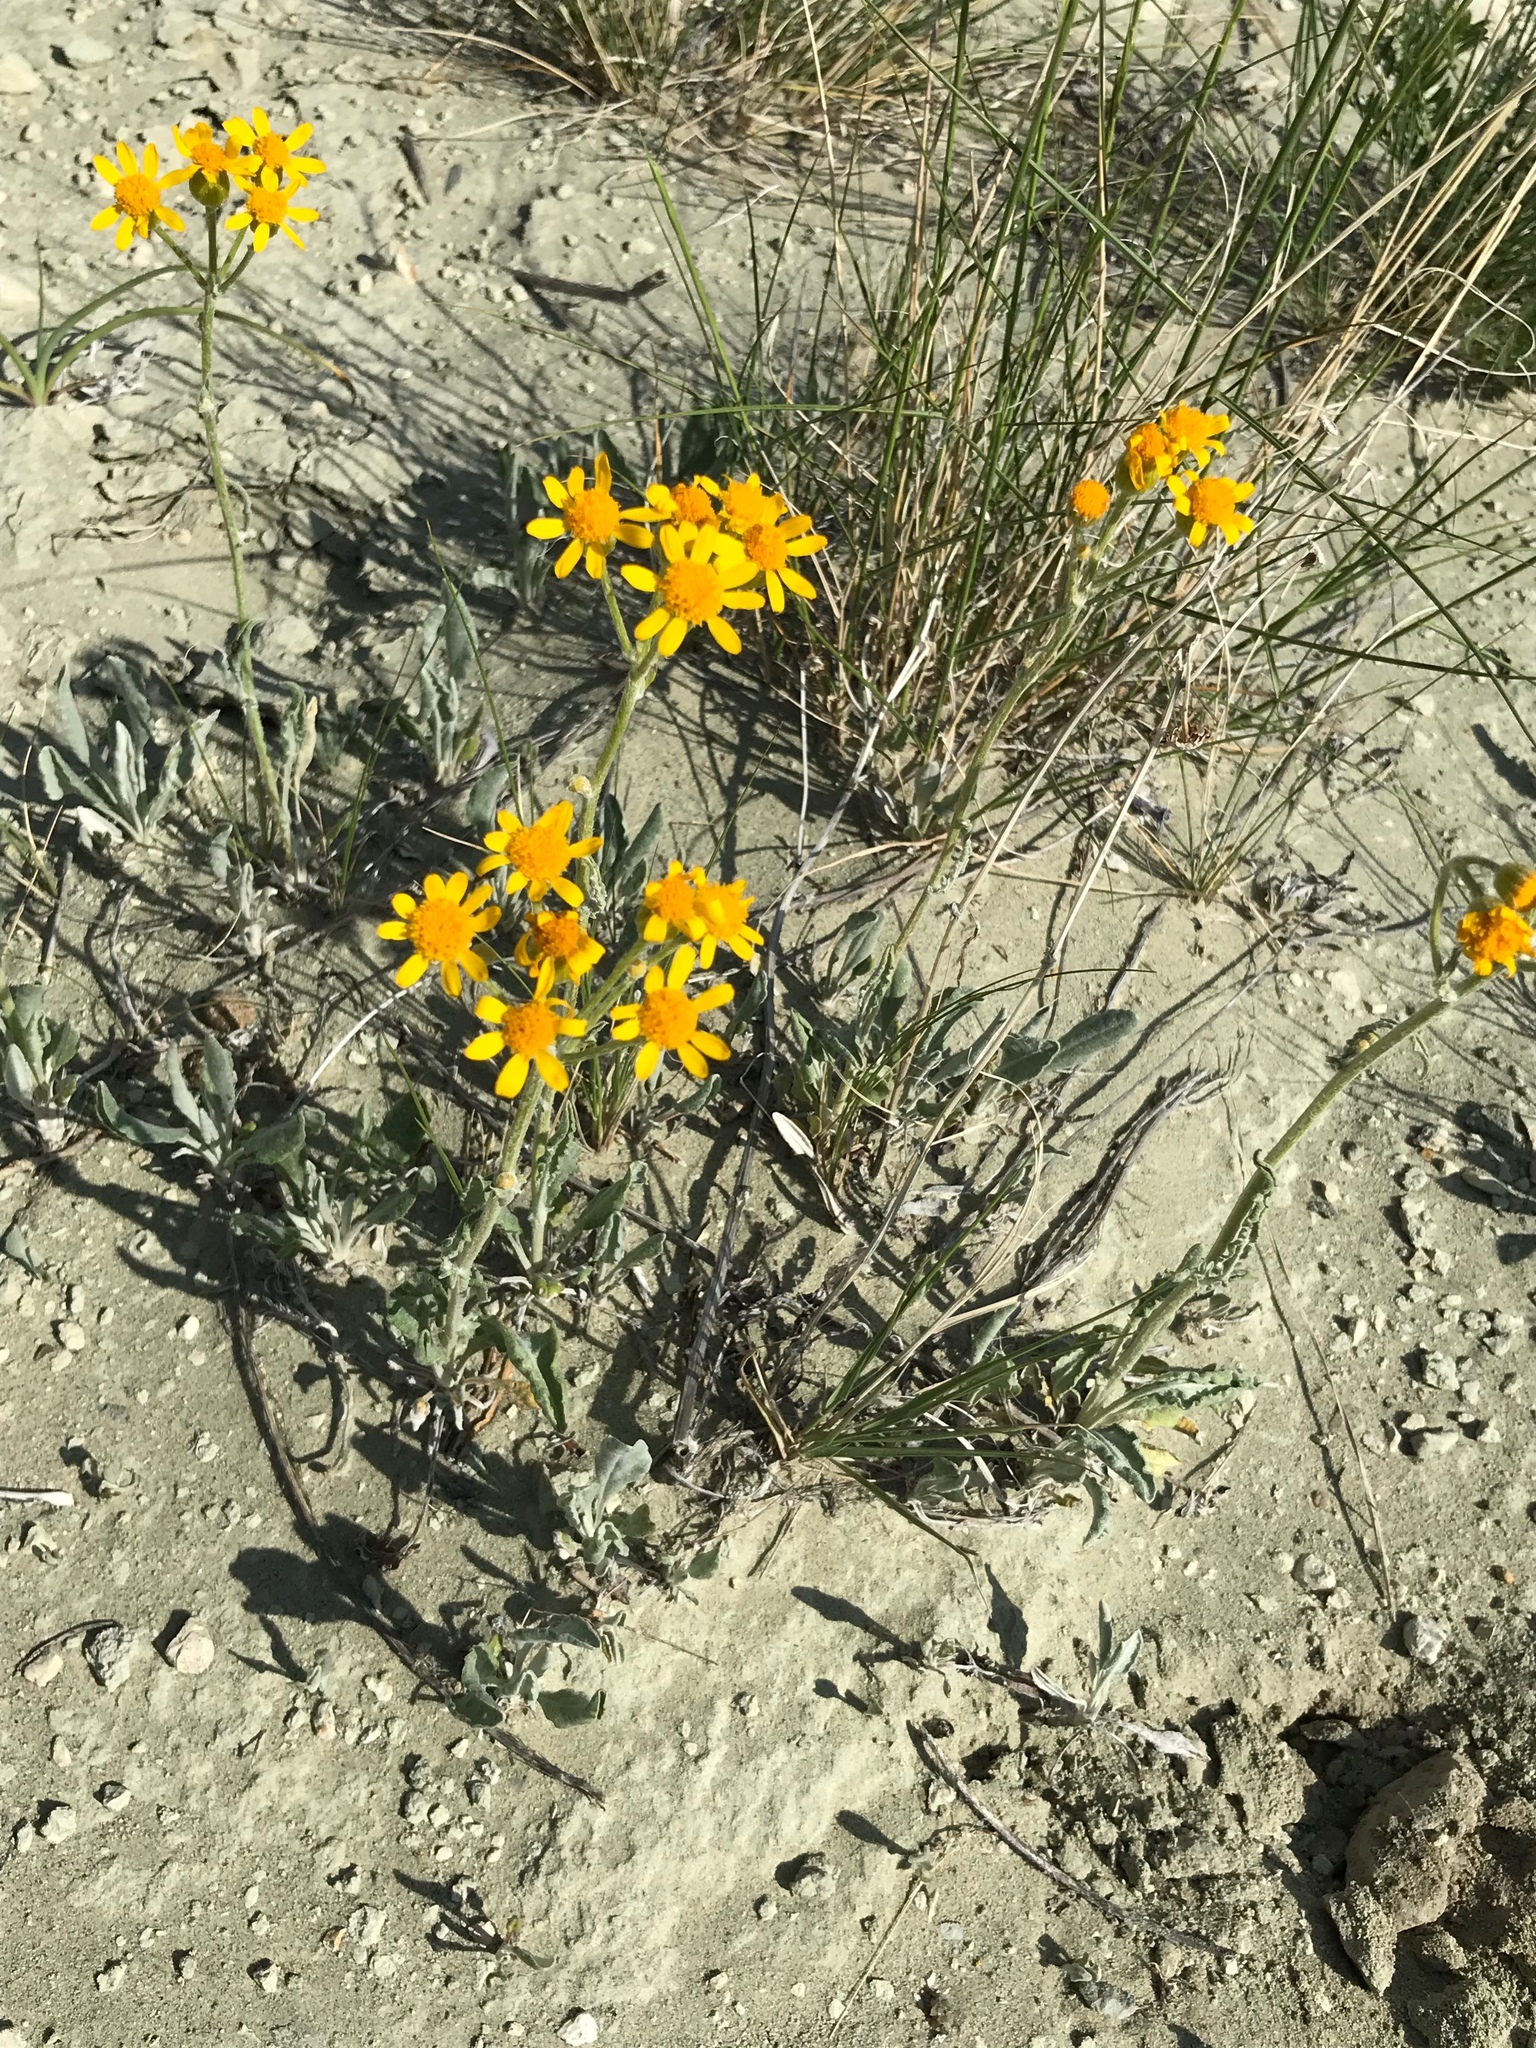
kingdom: Plantae
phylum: Tracheophyta
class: Magnoliopsida
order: Asterales
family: Asteraceae
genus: Packera
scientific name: Packera cana
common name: Woolly groundsel
